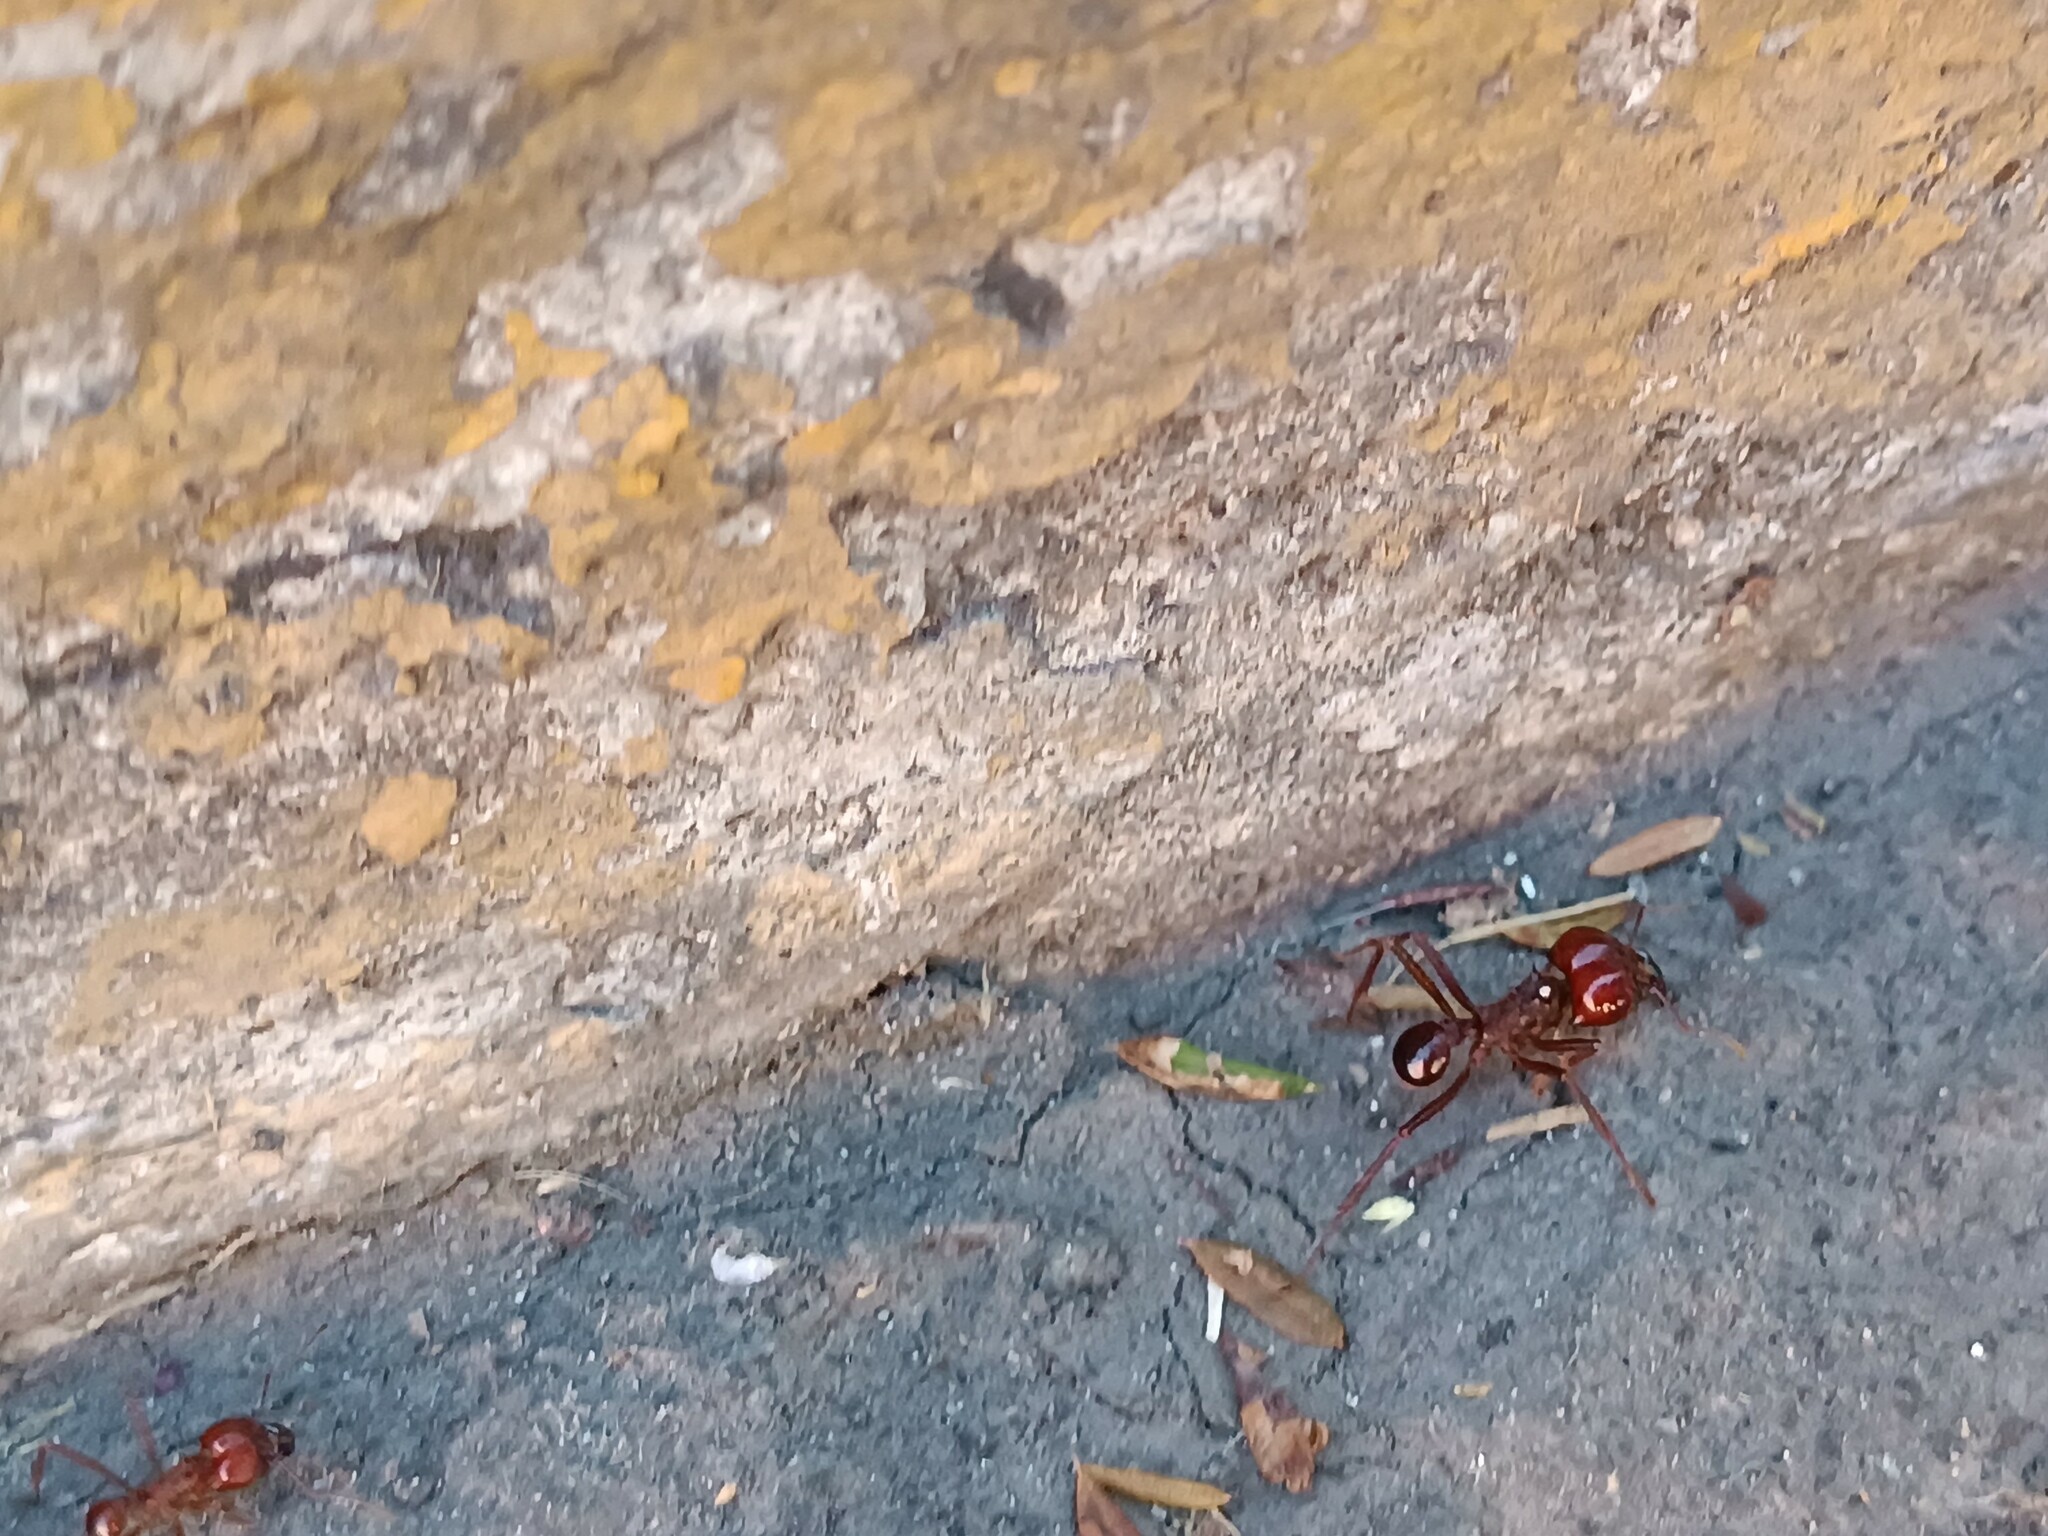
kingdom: Animalia
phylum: Arthropoda
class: Insecta
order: Hymenoptera
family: Formicidae
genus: Atta
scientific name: Atta mexicana
